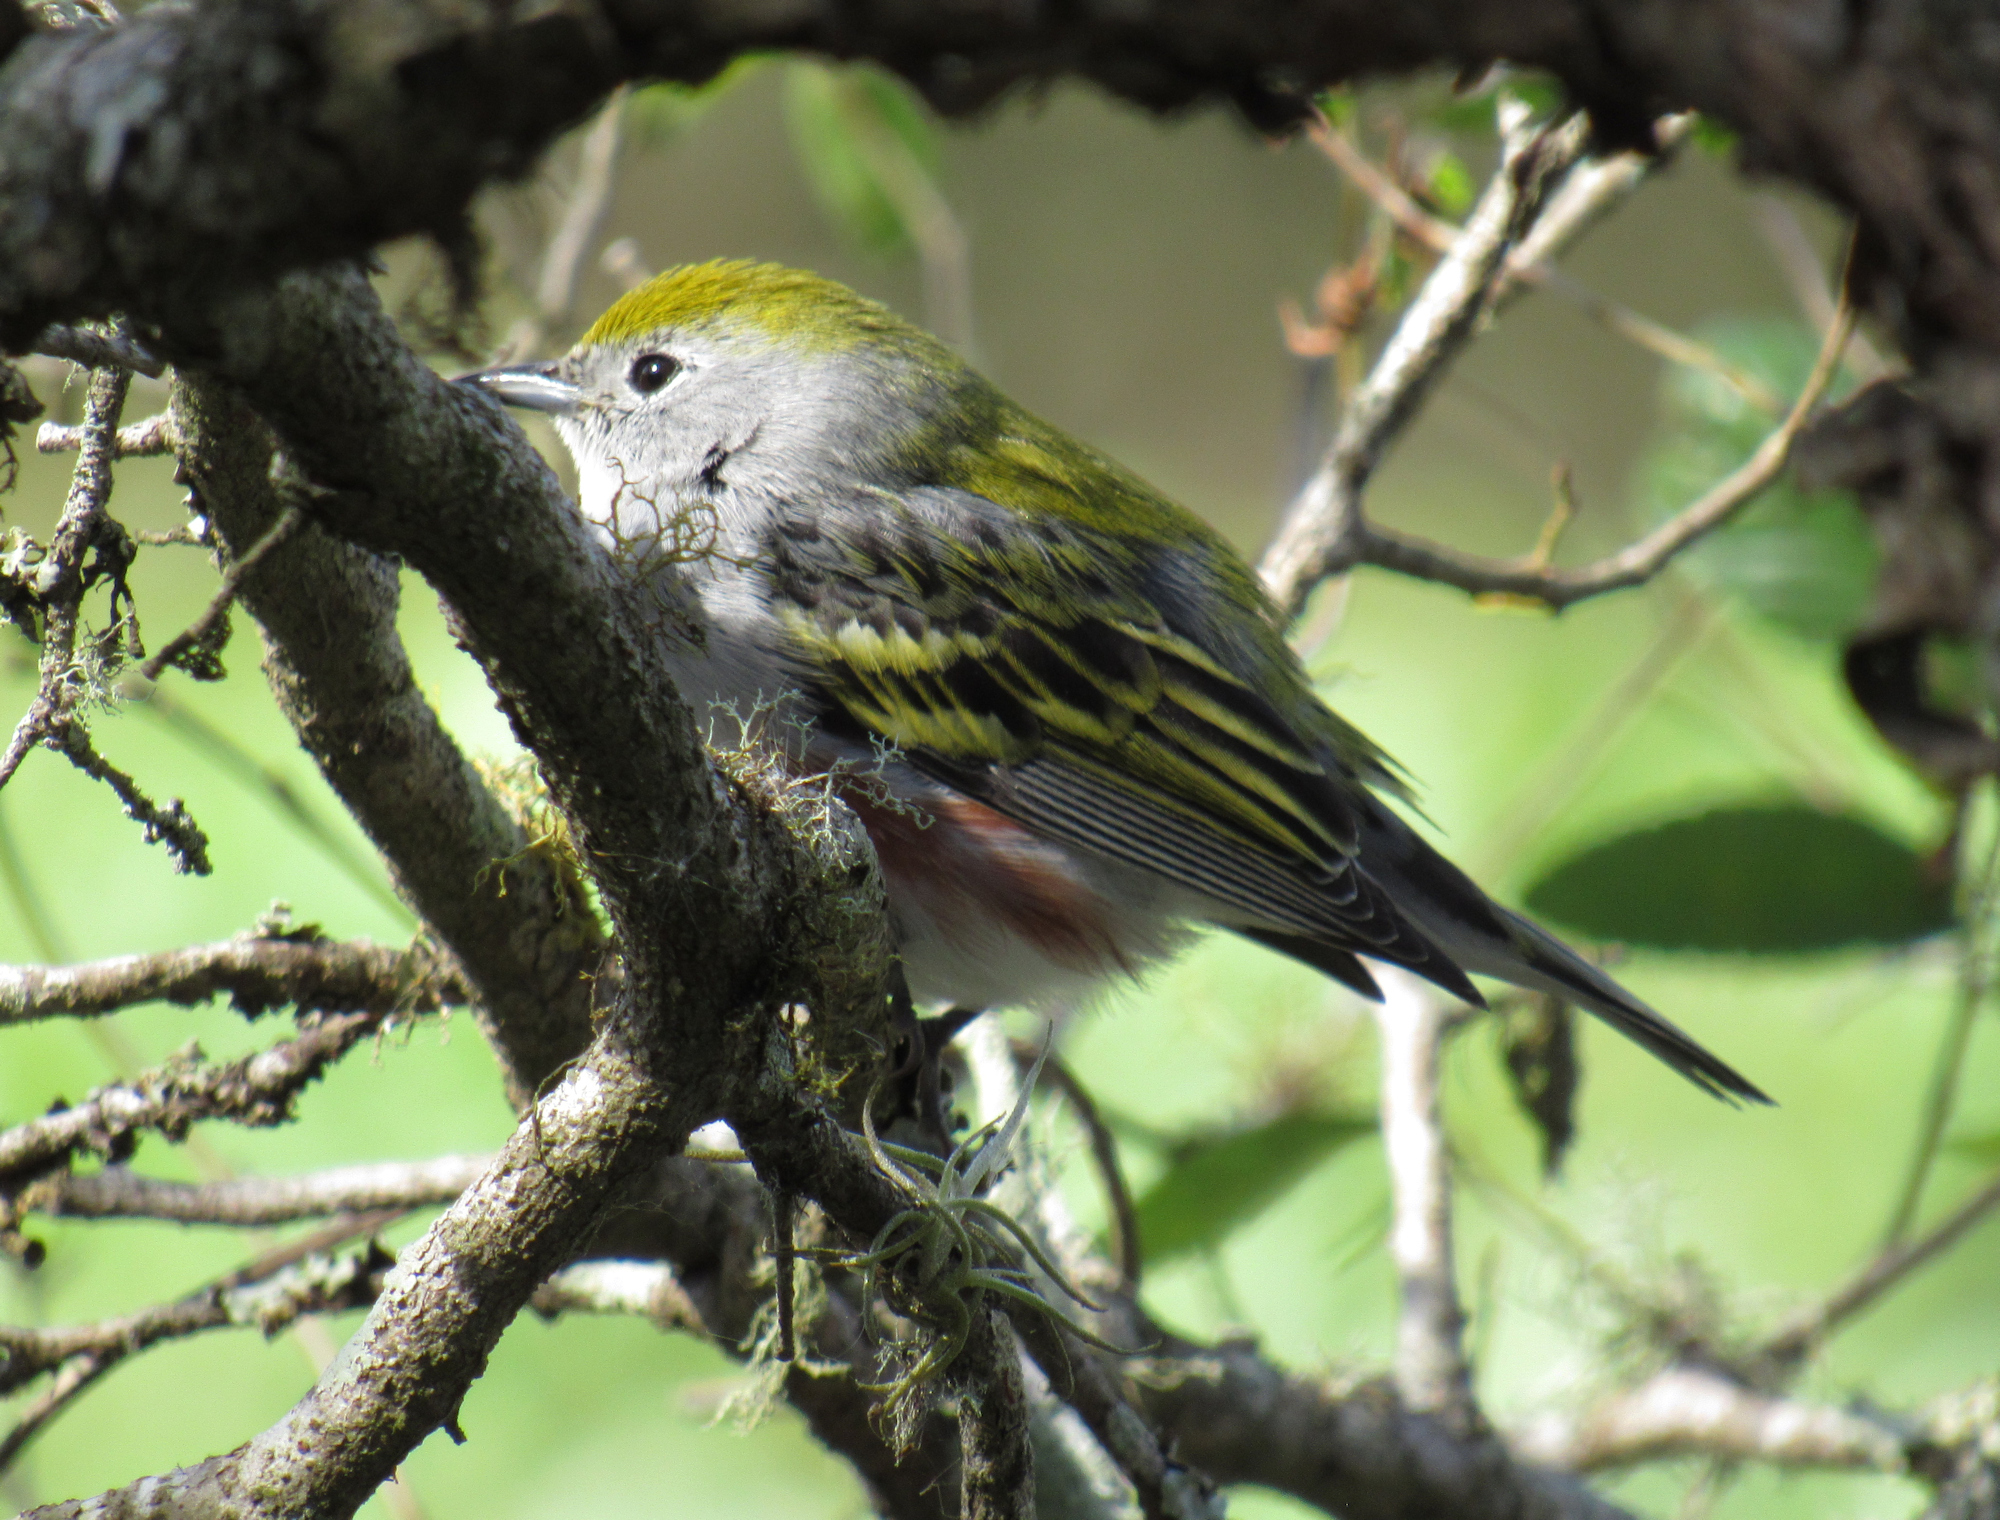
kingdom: Animalia
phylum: Chordata
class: Aves
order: Passeriformes
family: Parulidae
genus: Setophaga
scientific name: Setophaga pensylvanica
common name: Chestnut-sided warbler
